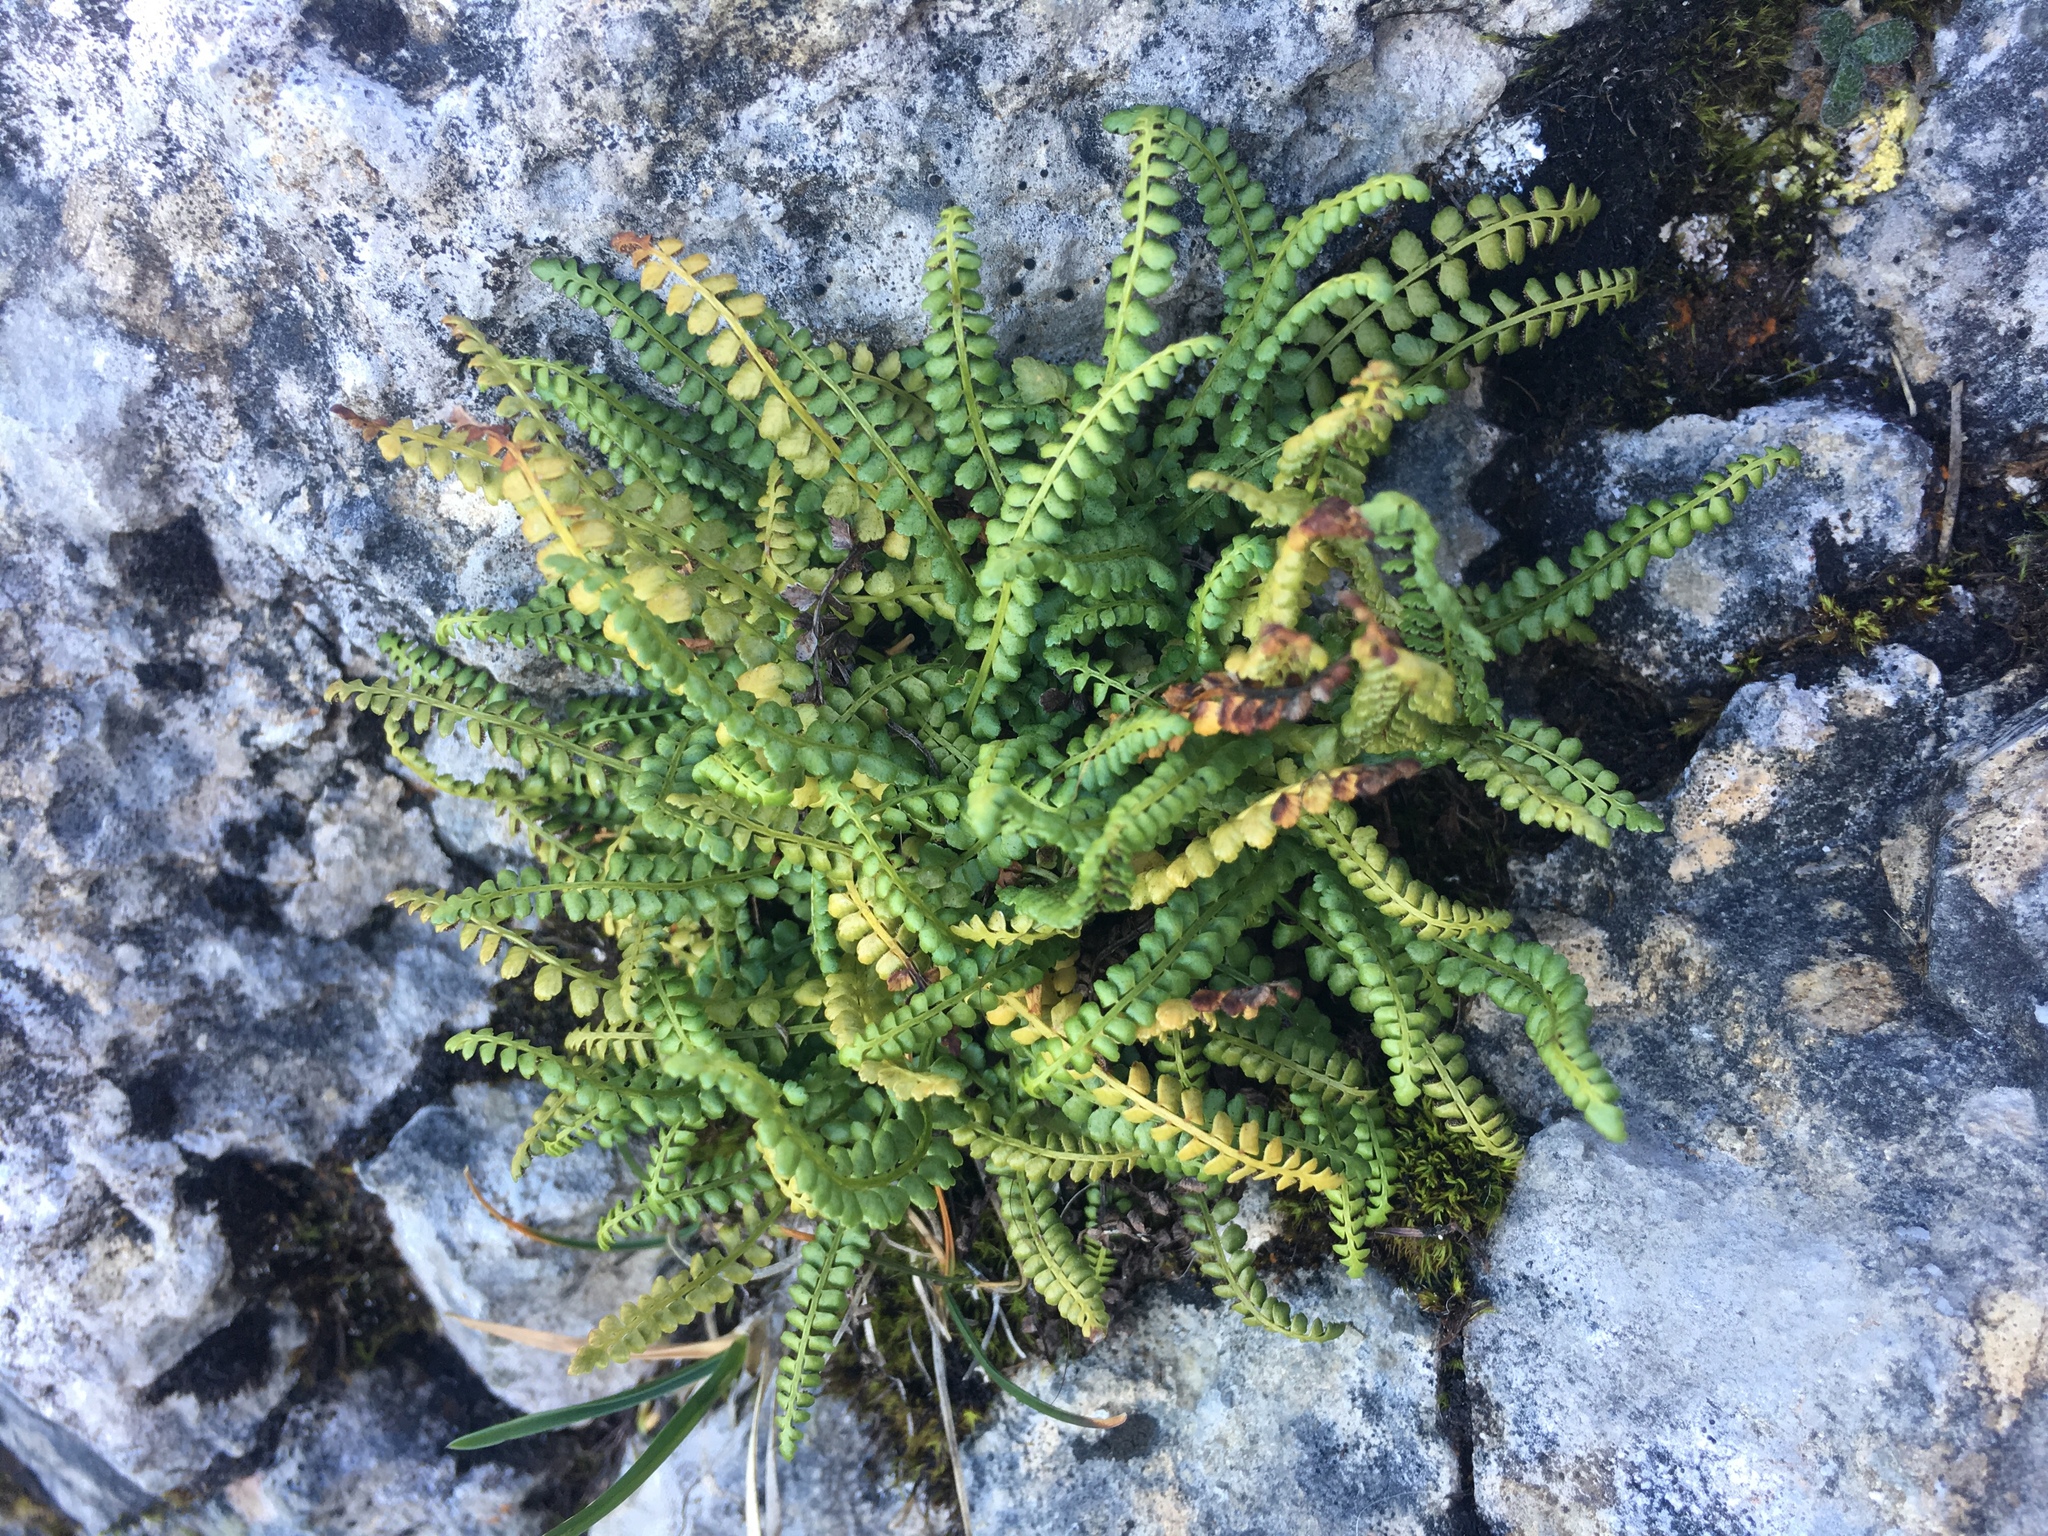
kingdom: Plantae
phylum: Tracheophyta
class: Polypodiopsida
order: Polypodiales
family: Aspleniaceae
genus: Asplenium
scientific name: Asplenium viride
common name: Green spleenwort
